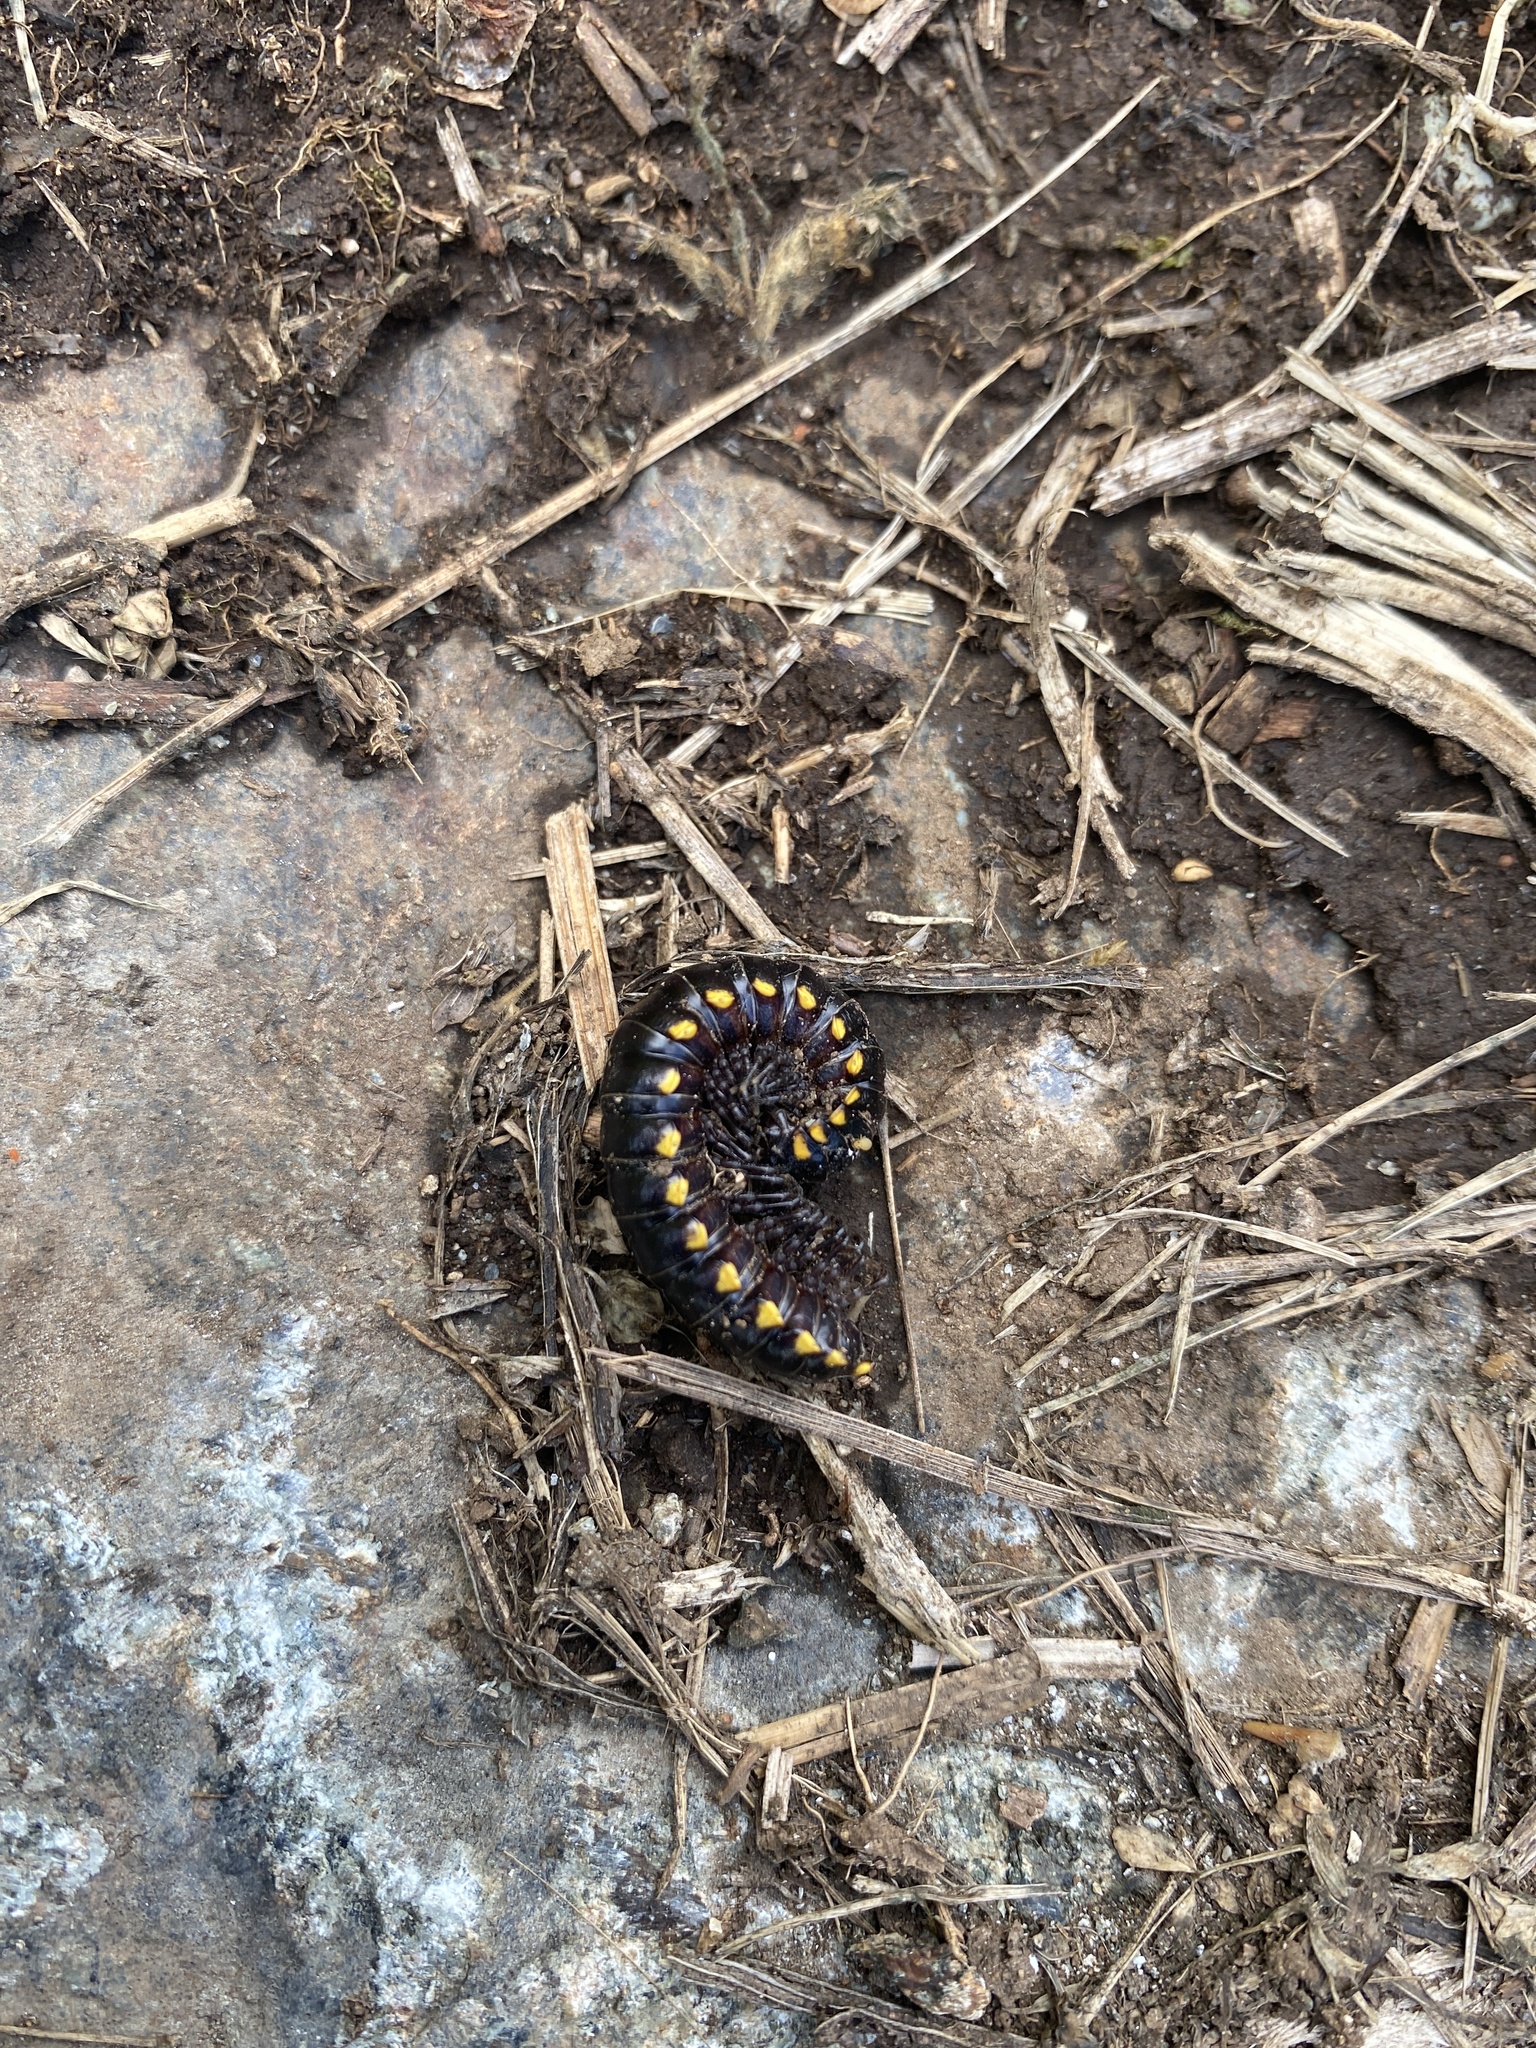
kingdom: Animalia
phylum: Arthropoda
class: Diplopoda
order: Polydesmida
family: Xystodesmidae
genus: Harpaphe
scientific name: Harpaphe haydeniana
